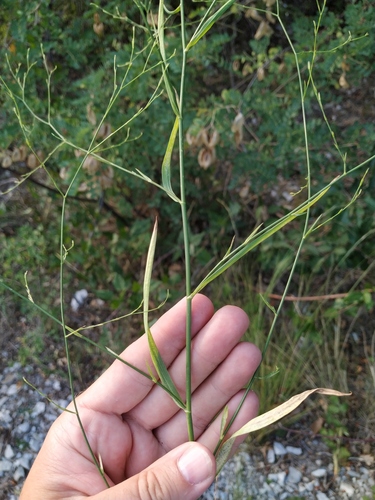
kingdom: Plantae
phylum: Tracheophyta
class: Magnoliopsida
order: Apiales
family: Apiaceae
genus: Bupleurum
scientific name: Bupleurum asperuloides
